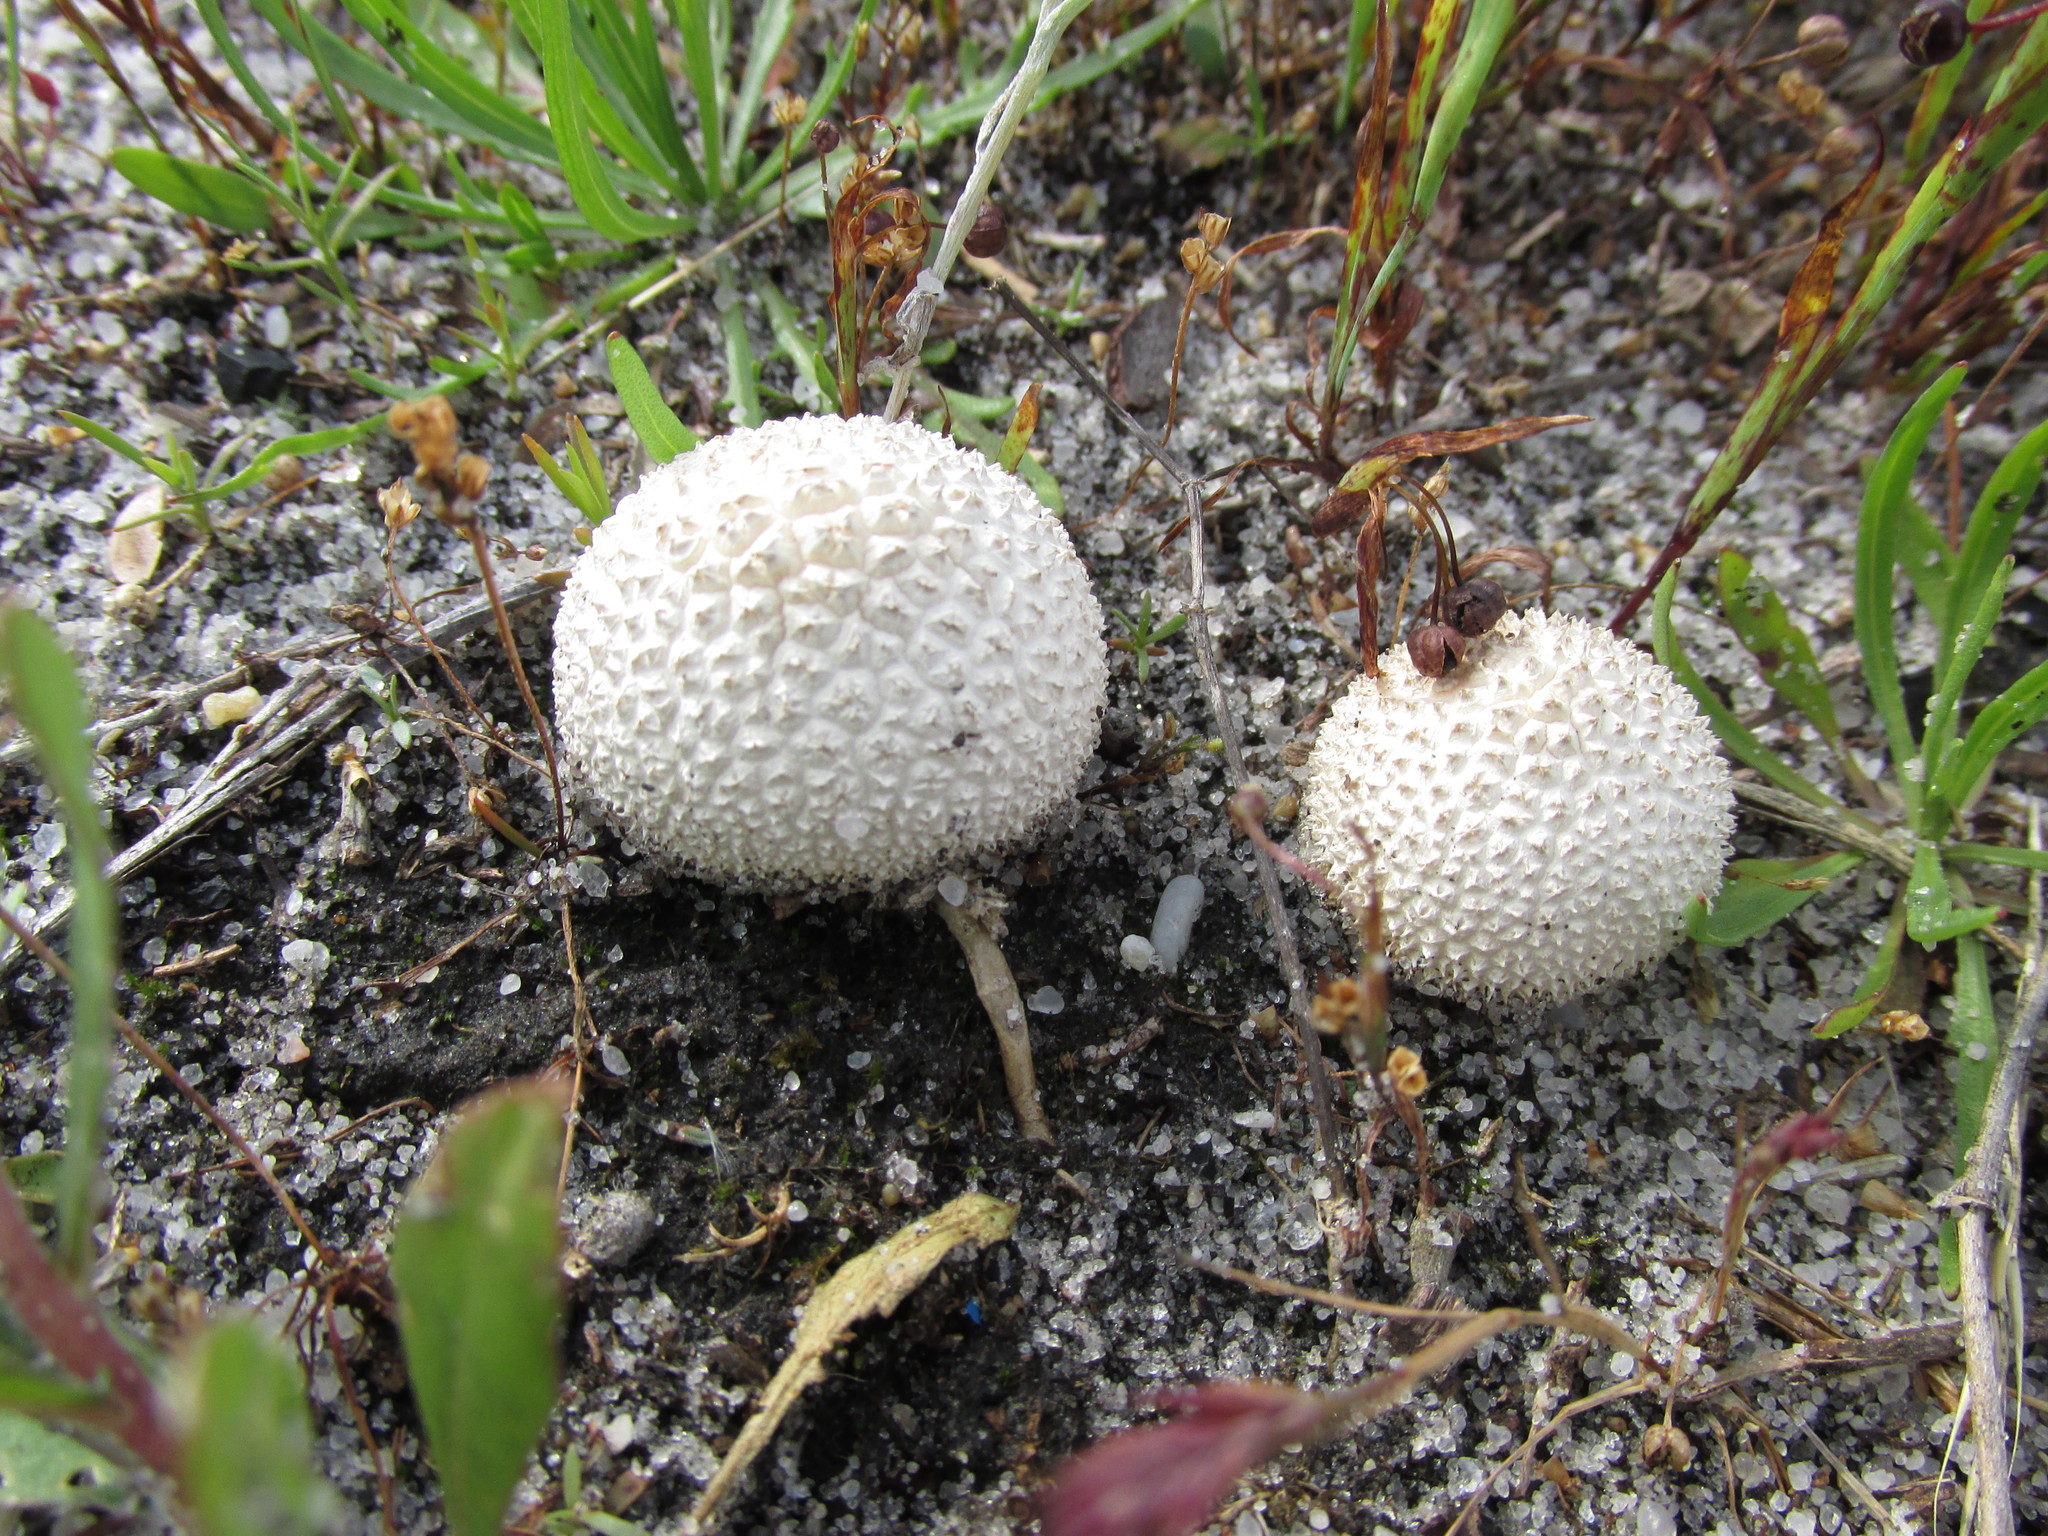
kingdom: Fungi
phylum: Basidiomycota
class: Agaricomycetes
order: Agaricales
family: Agaricaceae
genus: Lycoperdon
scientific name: Lycoperdon marginatum
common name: Peeling puffball
